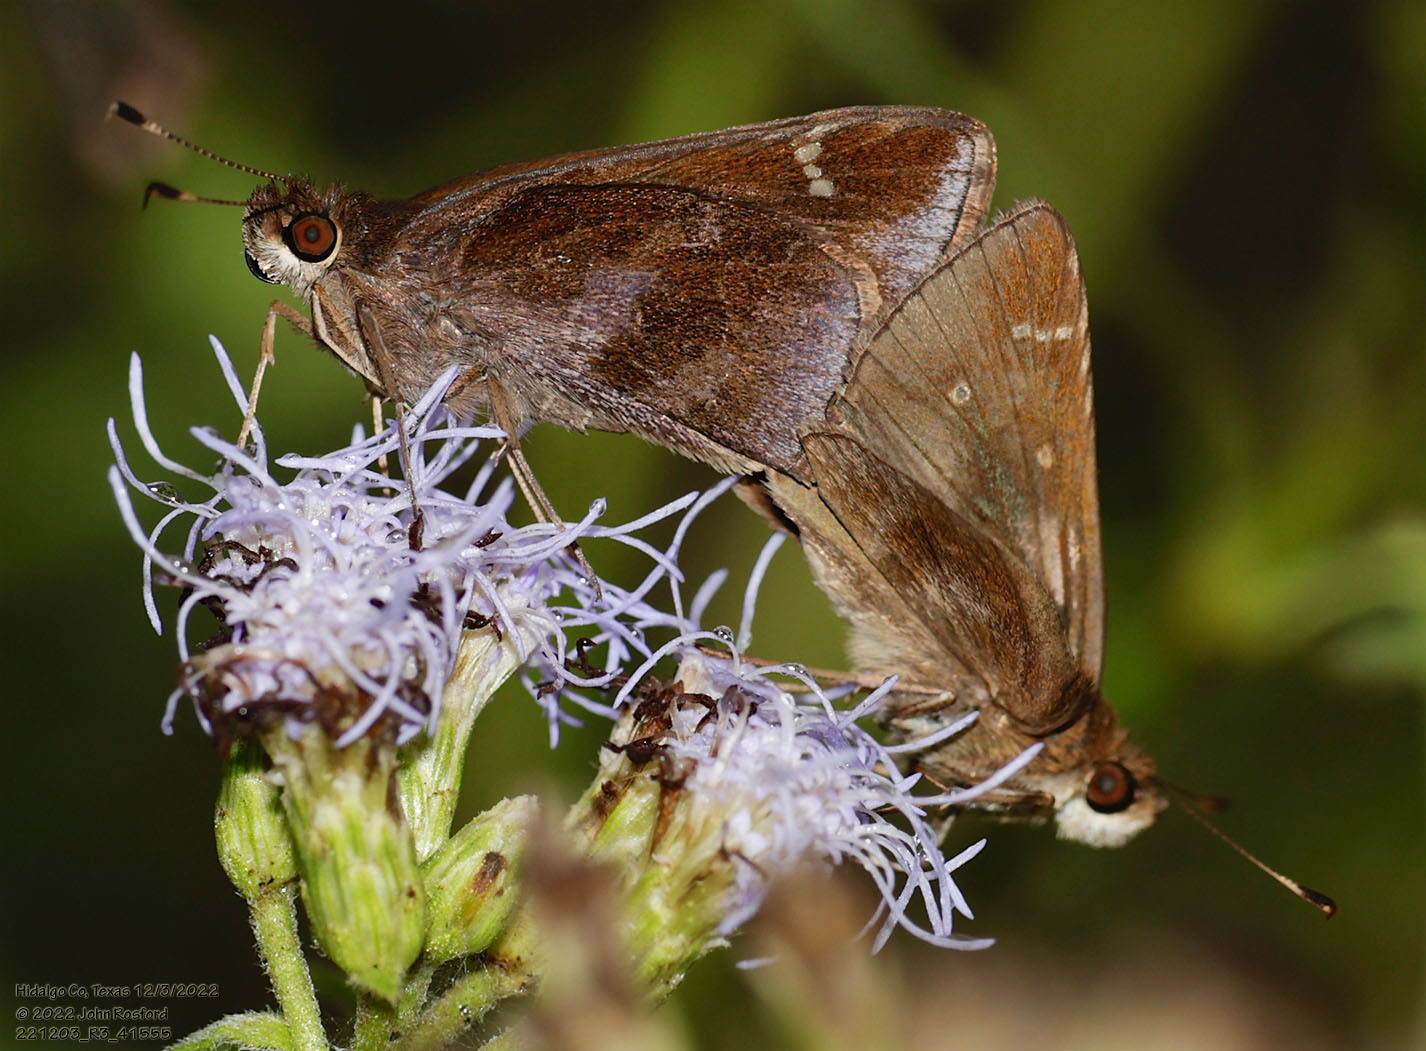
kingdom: Animalia
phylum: Arthropoda
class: Insecta
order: Lepidoptera
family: Hesperiidae
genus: Lerema
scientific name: Lerema accius
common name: Clouded skipper
